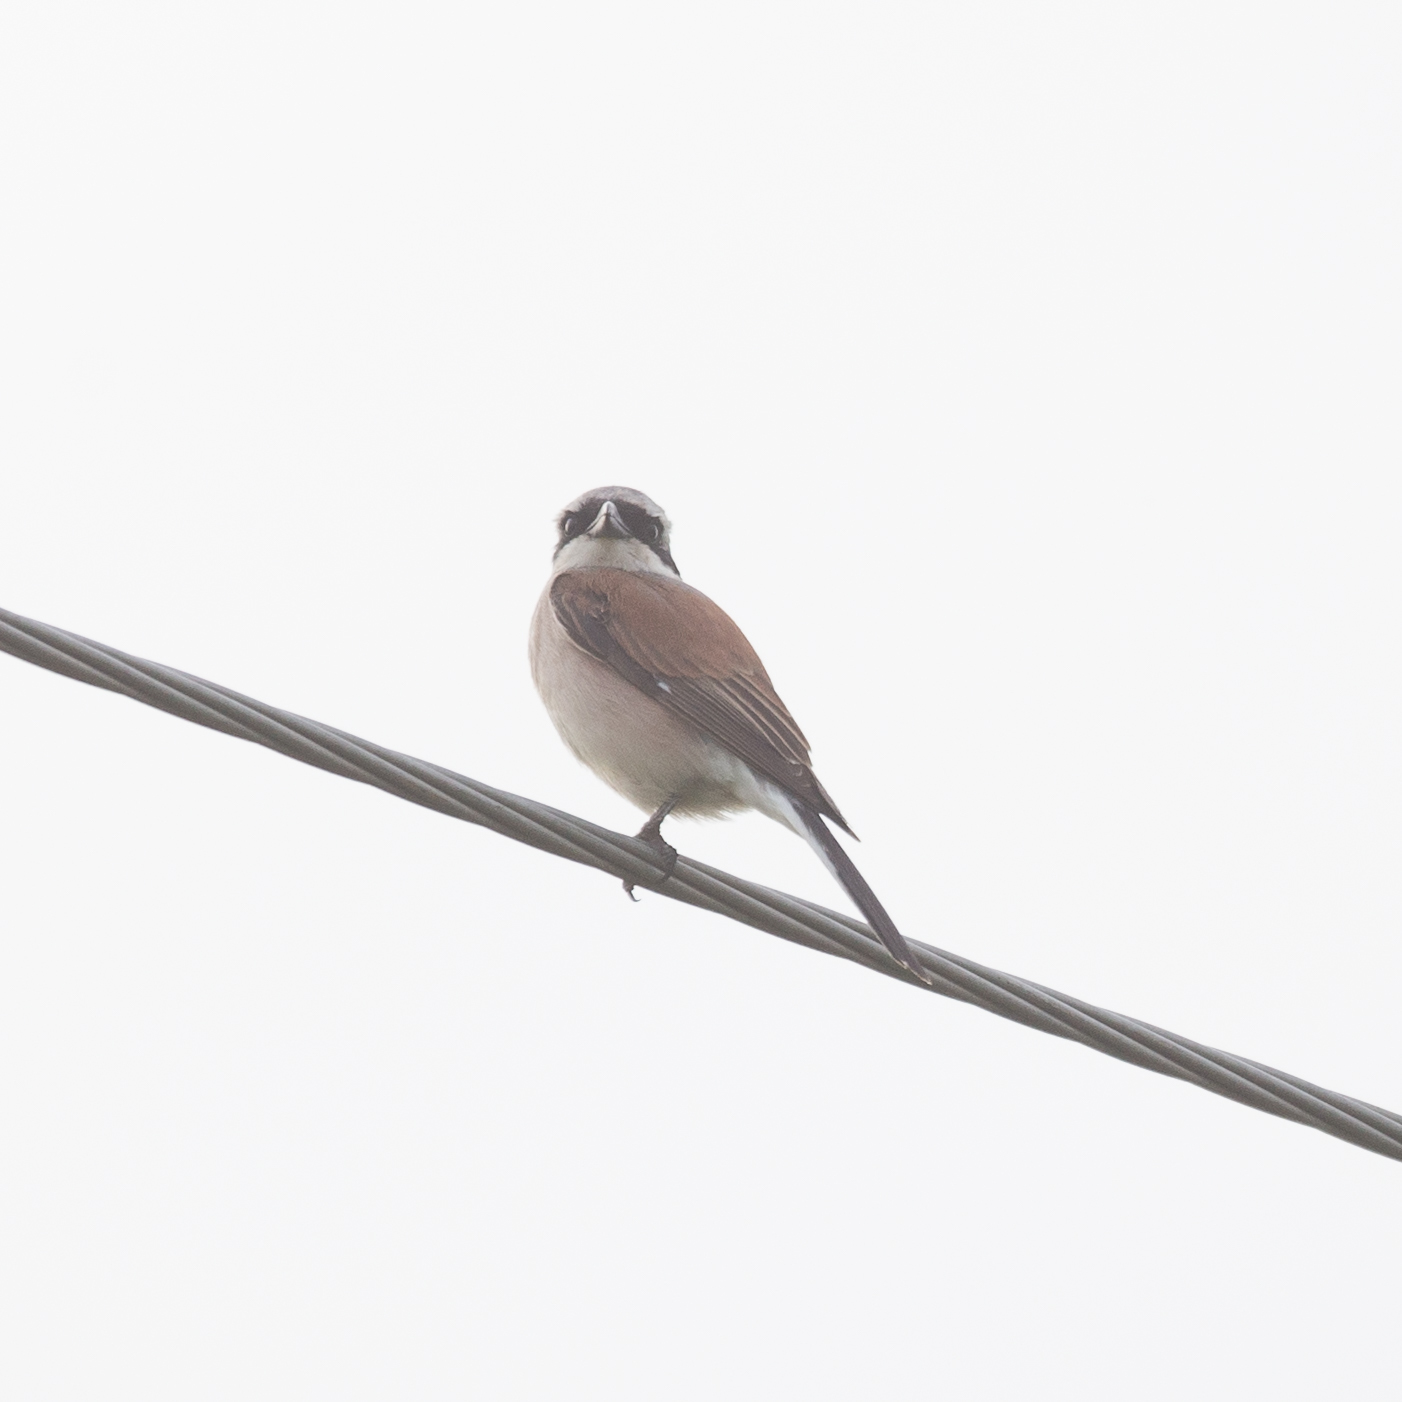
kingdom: Animalia
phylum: Chordata
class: Aves
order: Passeriformes
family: Laniidae
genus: Lanius
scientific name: Lanius collurio
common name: Red-backed shrike
